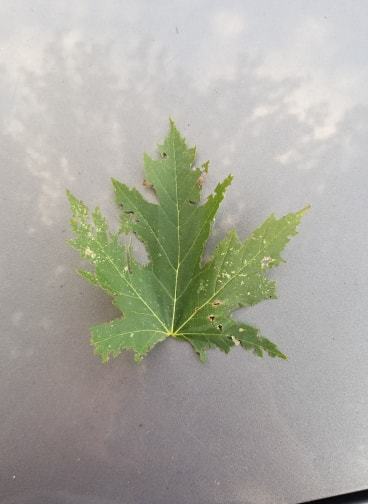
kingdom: Plantae
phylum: Tracheophyta
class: Magnoliopsida
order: Sapindales
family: Sapindaceae
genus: Acer
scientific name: Acer saccharinum
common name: Silver maple
